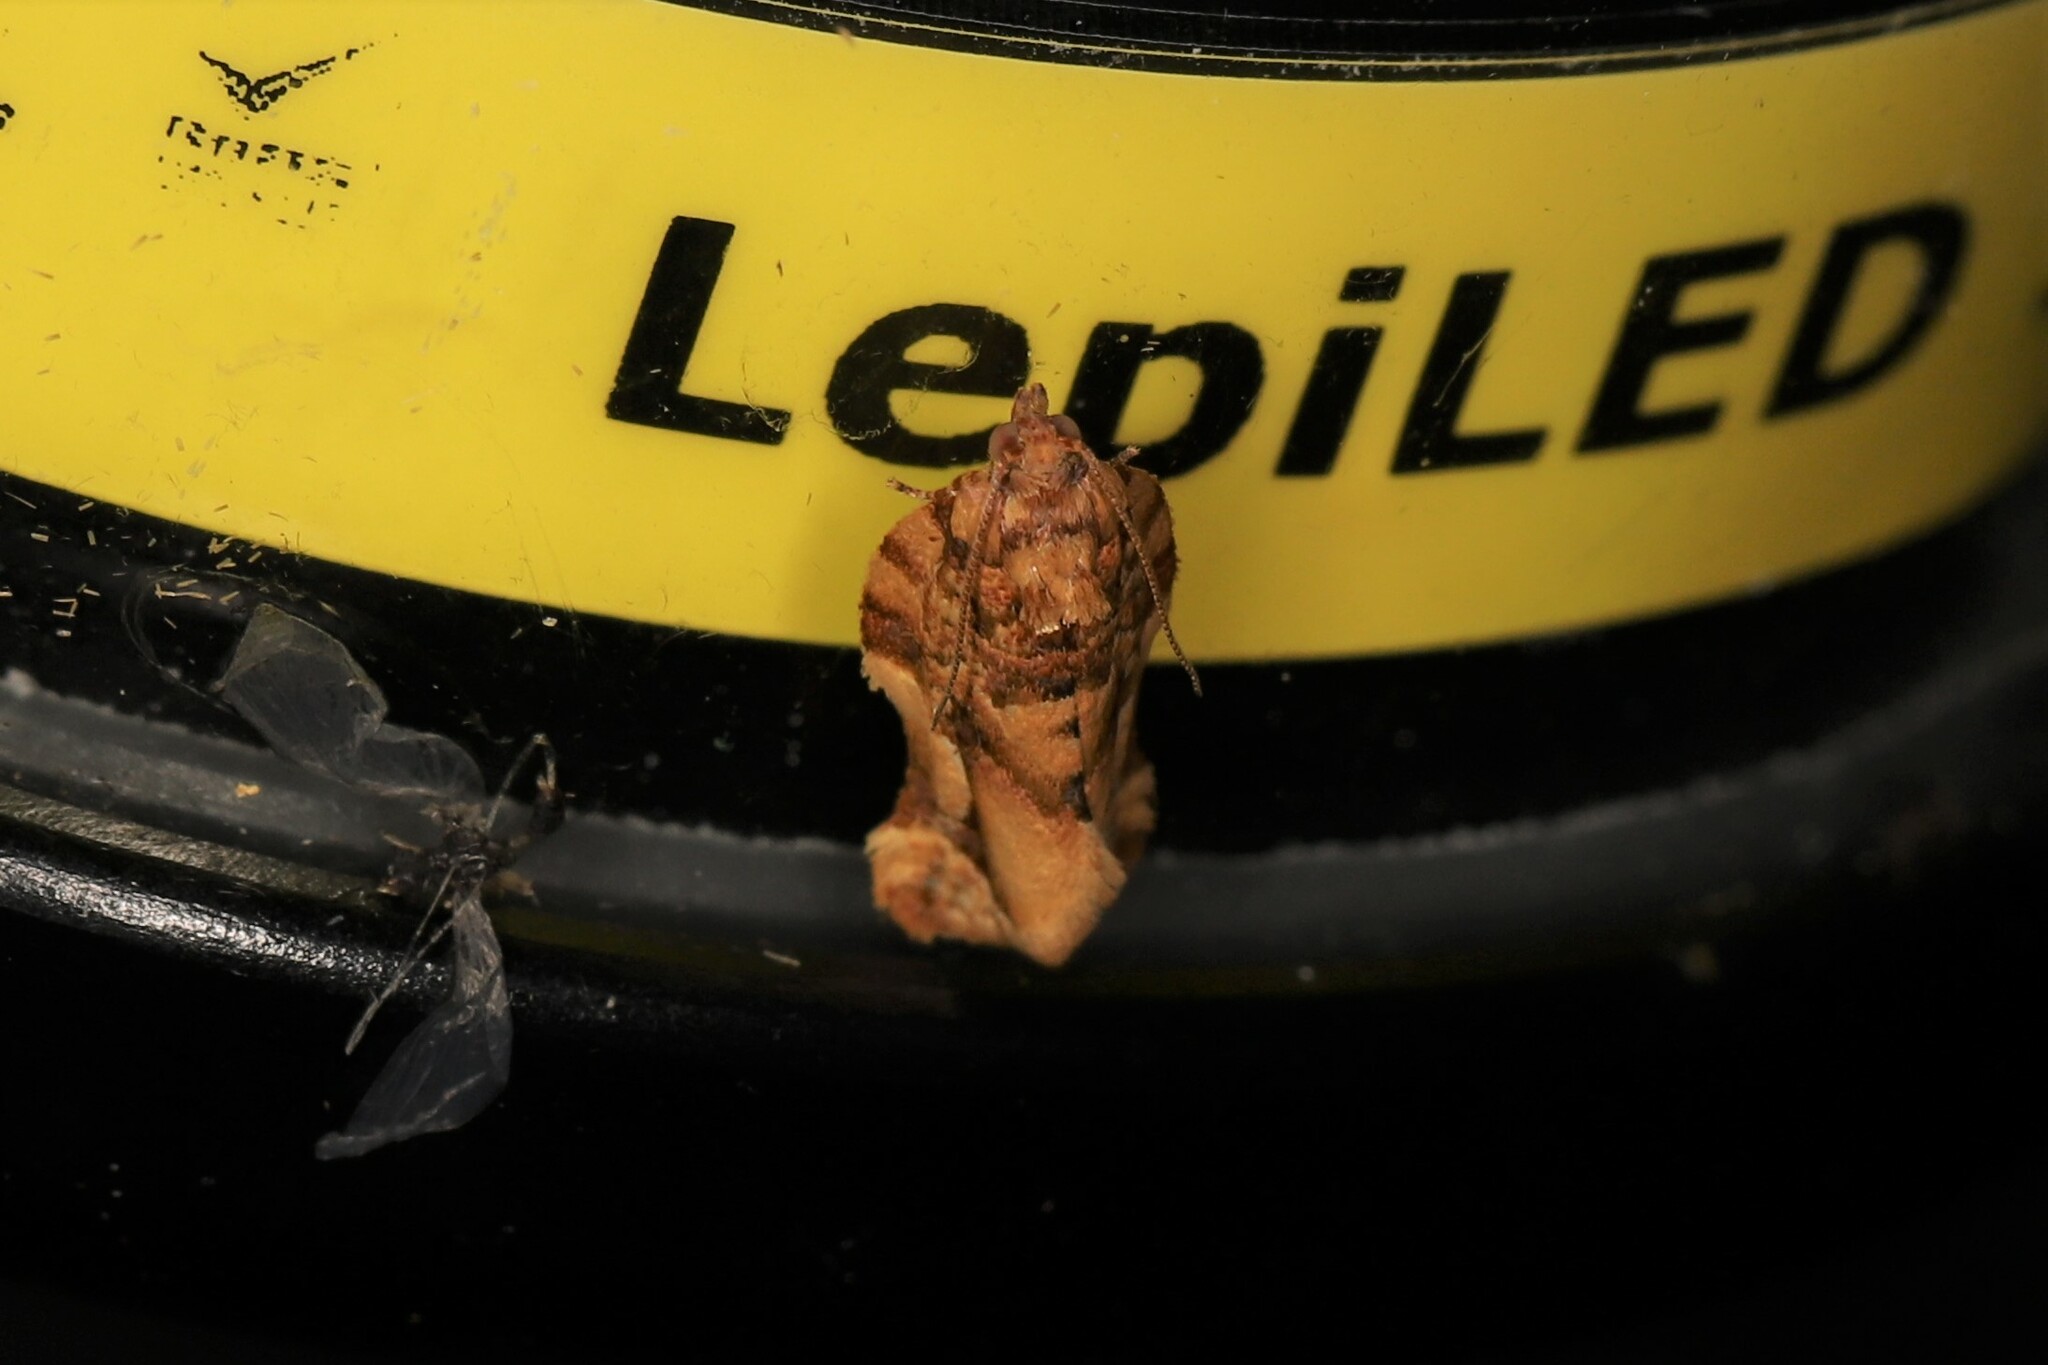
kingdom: Animalia
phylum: Arthropoda
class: Insecta
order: Lepidoptera
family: Tortricidae
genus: Argyrotaenia
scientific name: Argyrotaenia citharexylana
